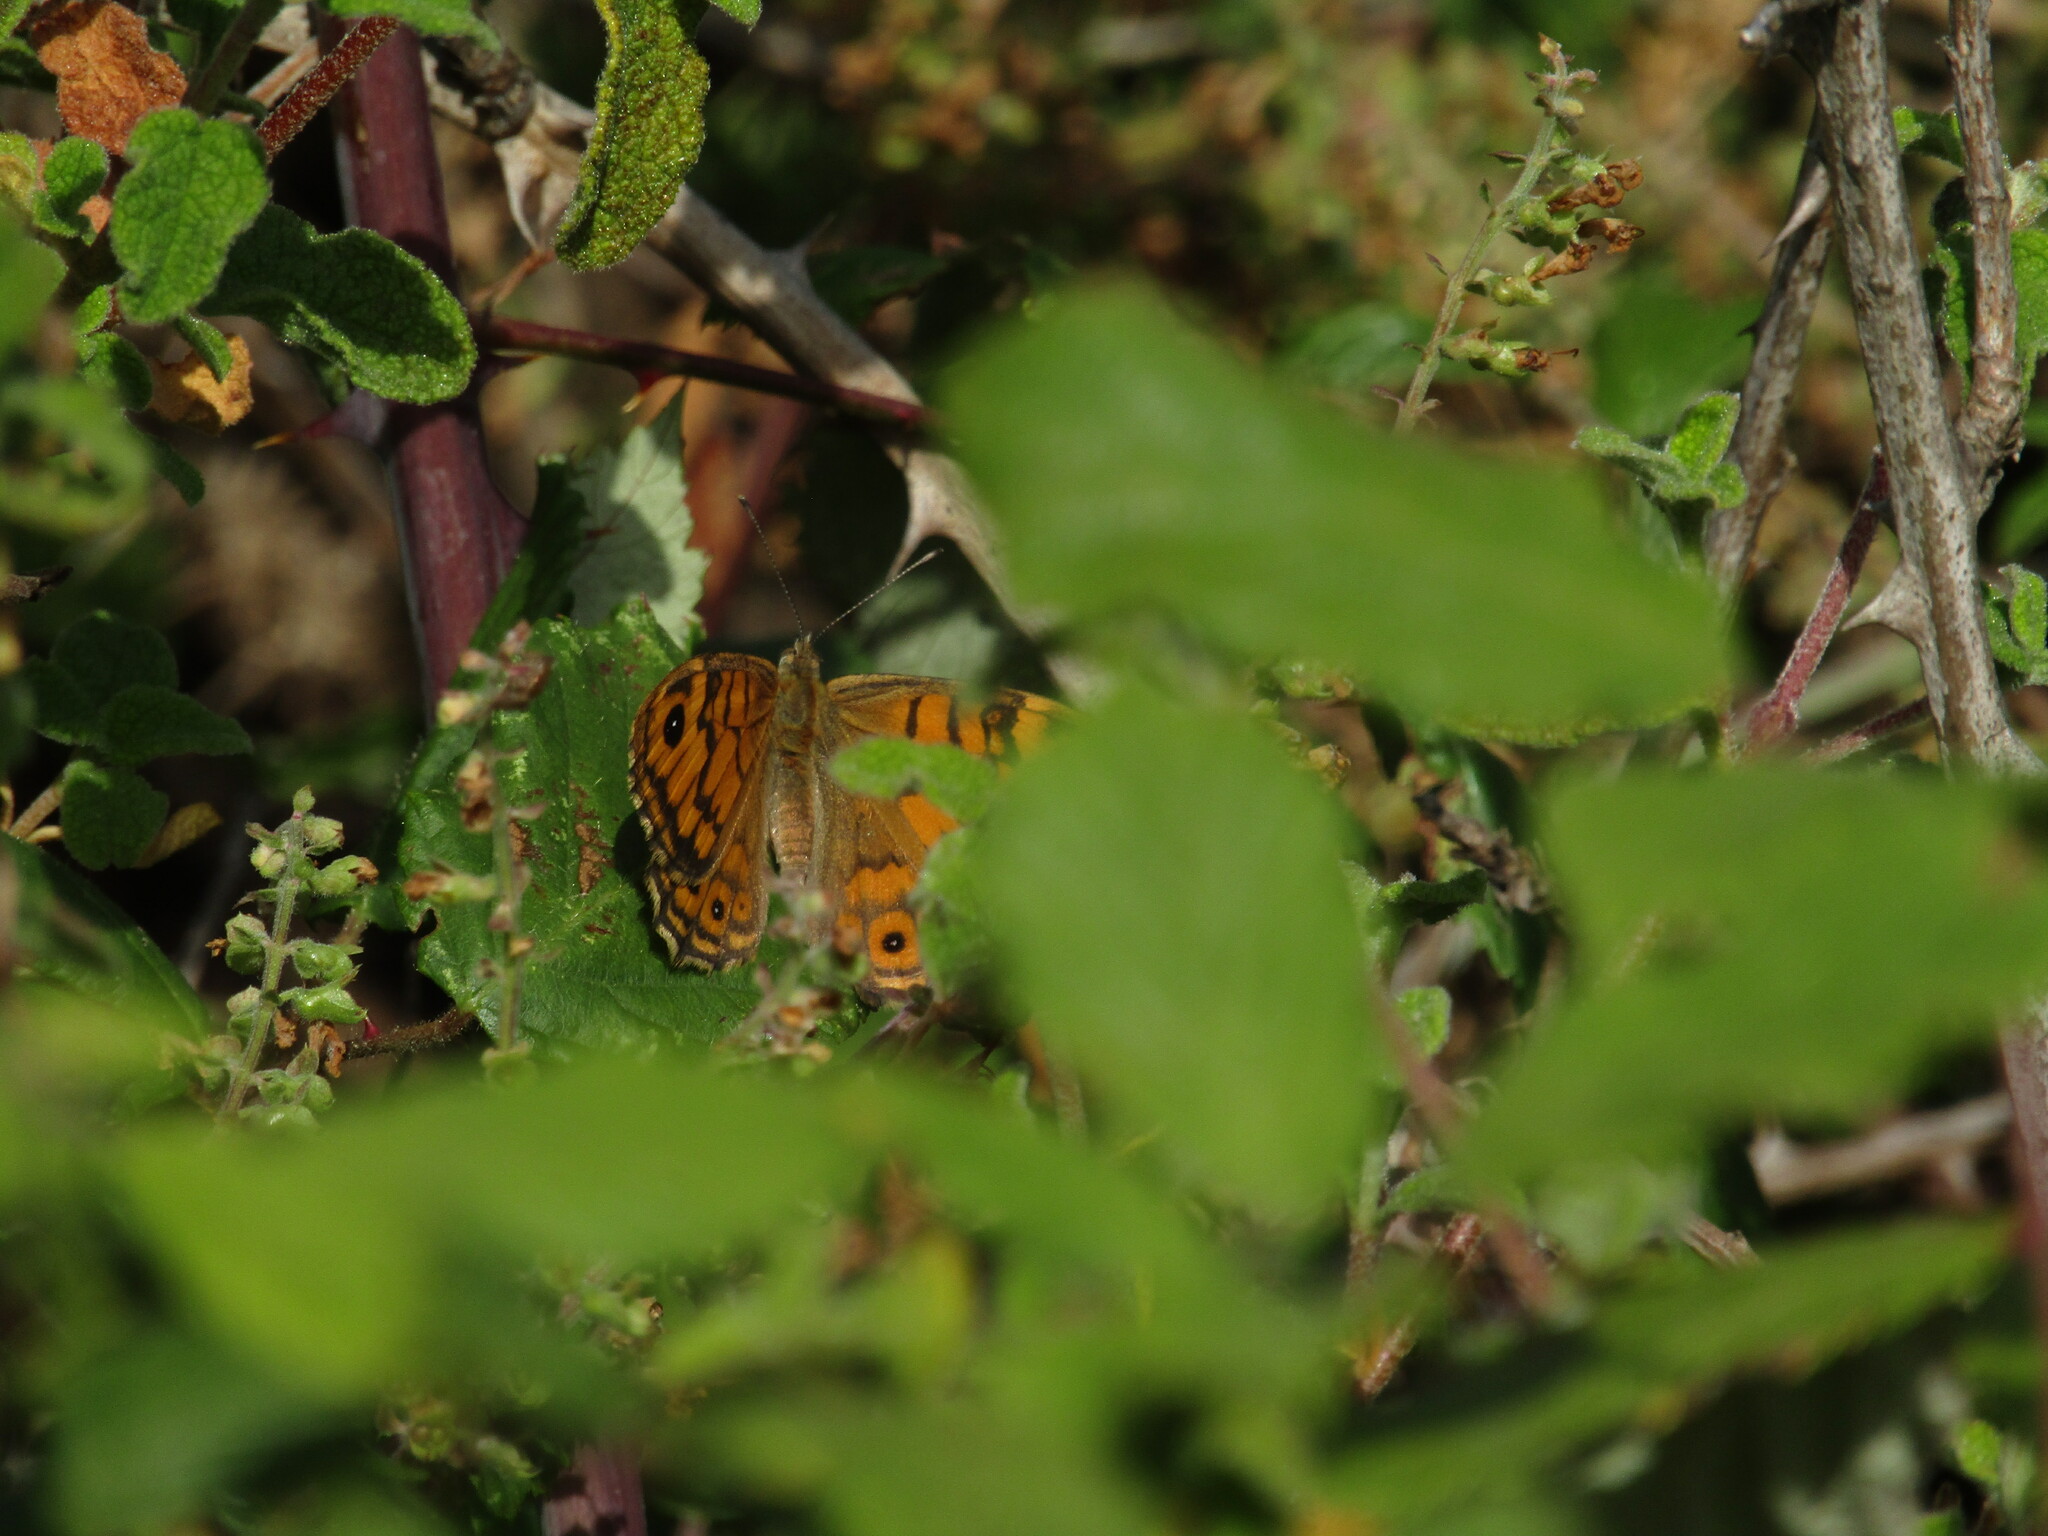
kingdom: Animalia
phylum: Arthropoda
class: Insecta
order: Lepidoptera
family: Nymphalidae
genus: Pararge
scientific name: Pararge Lasiommata megera
